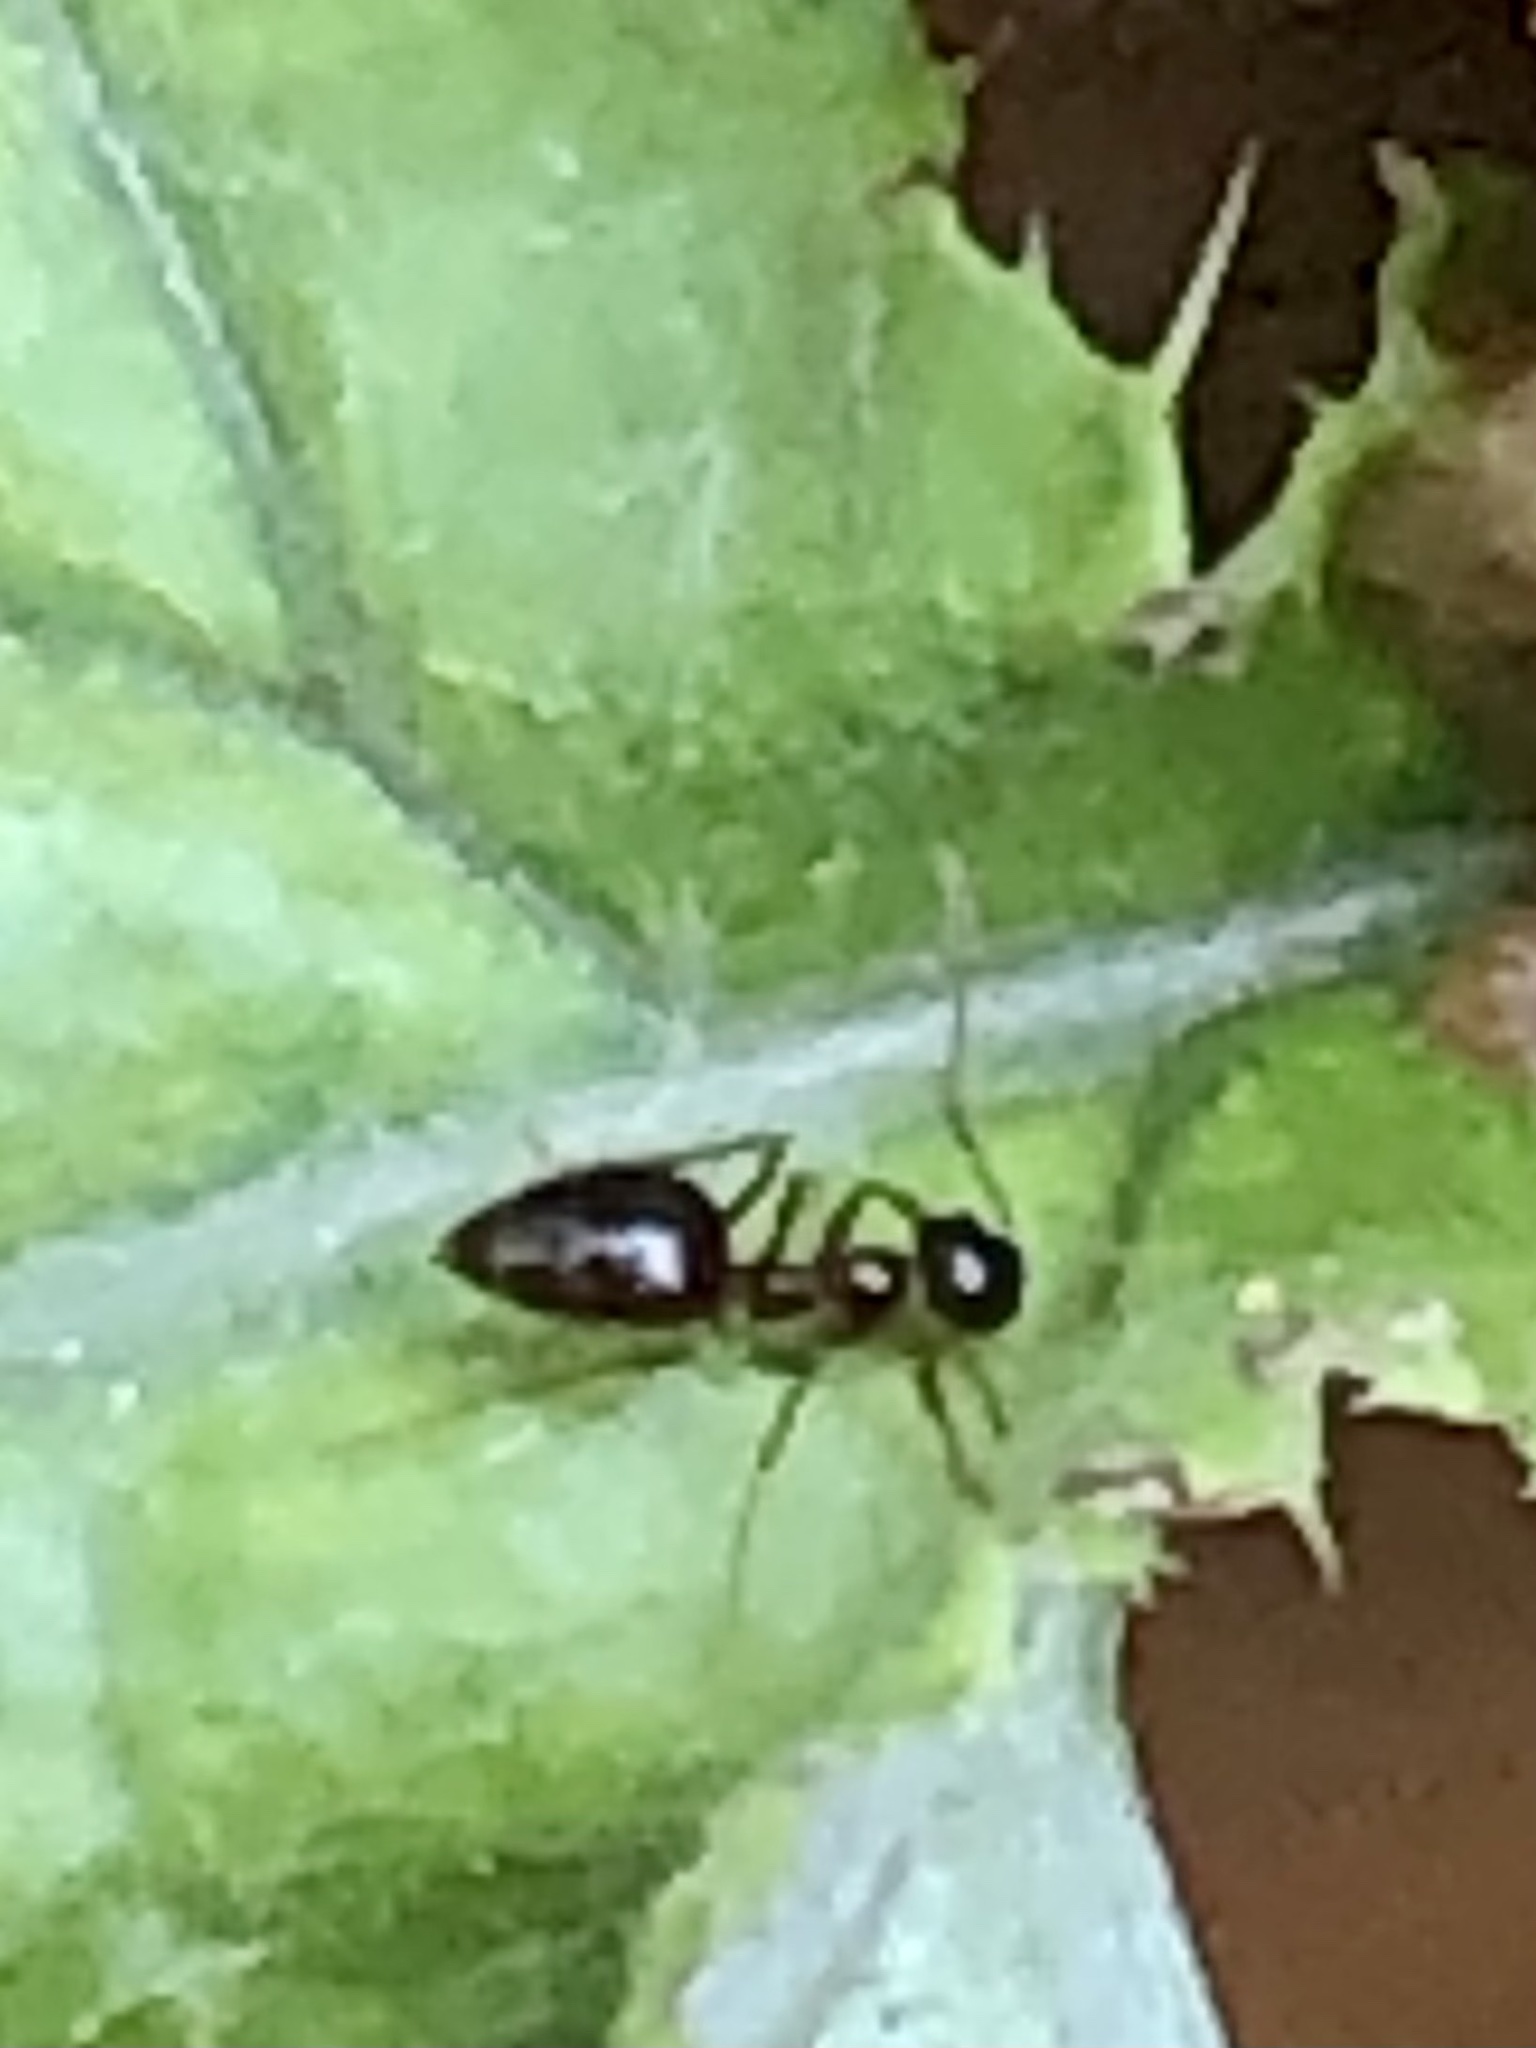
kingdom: Animalia
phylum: Arthropoda
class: Insecta
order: Hymenoptera
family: Formicidae
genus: Prenolepis
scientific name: Prenolepis imparis
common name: Small honey ant
